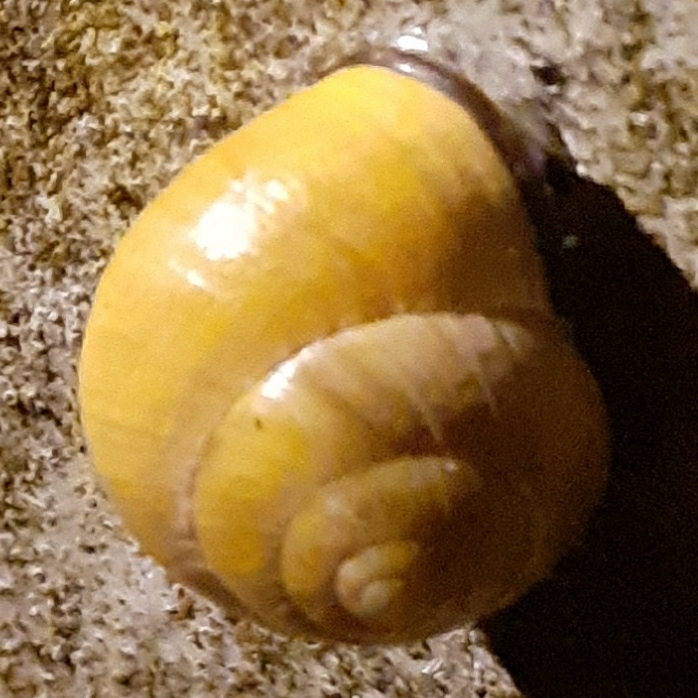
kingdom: Animalia
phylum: Mollusca
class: Gastropoda
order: Stylommatophora
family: Helicidae
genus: Cepaea
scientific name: Cepaea nemoralis
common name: Grovesnail
